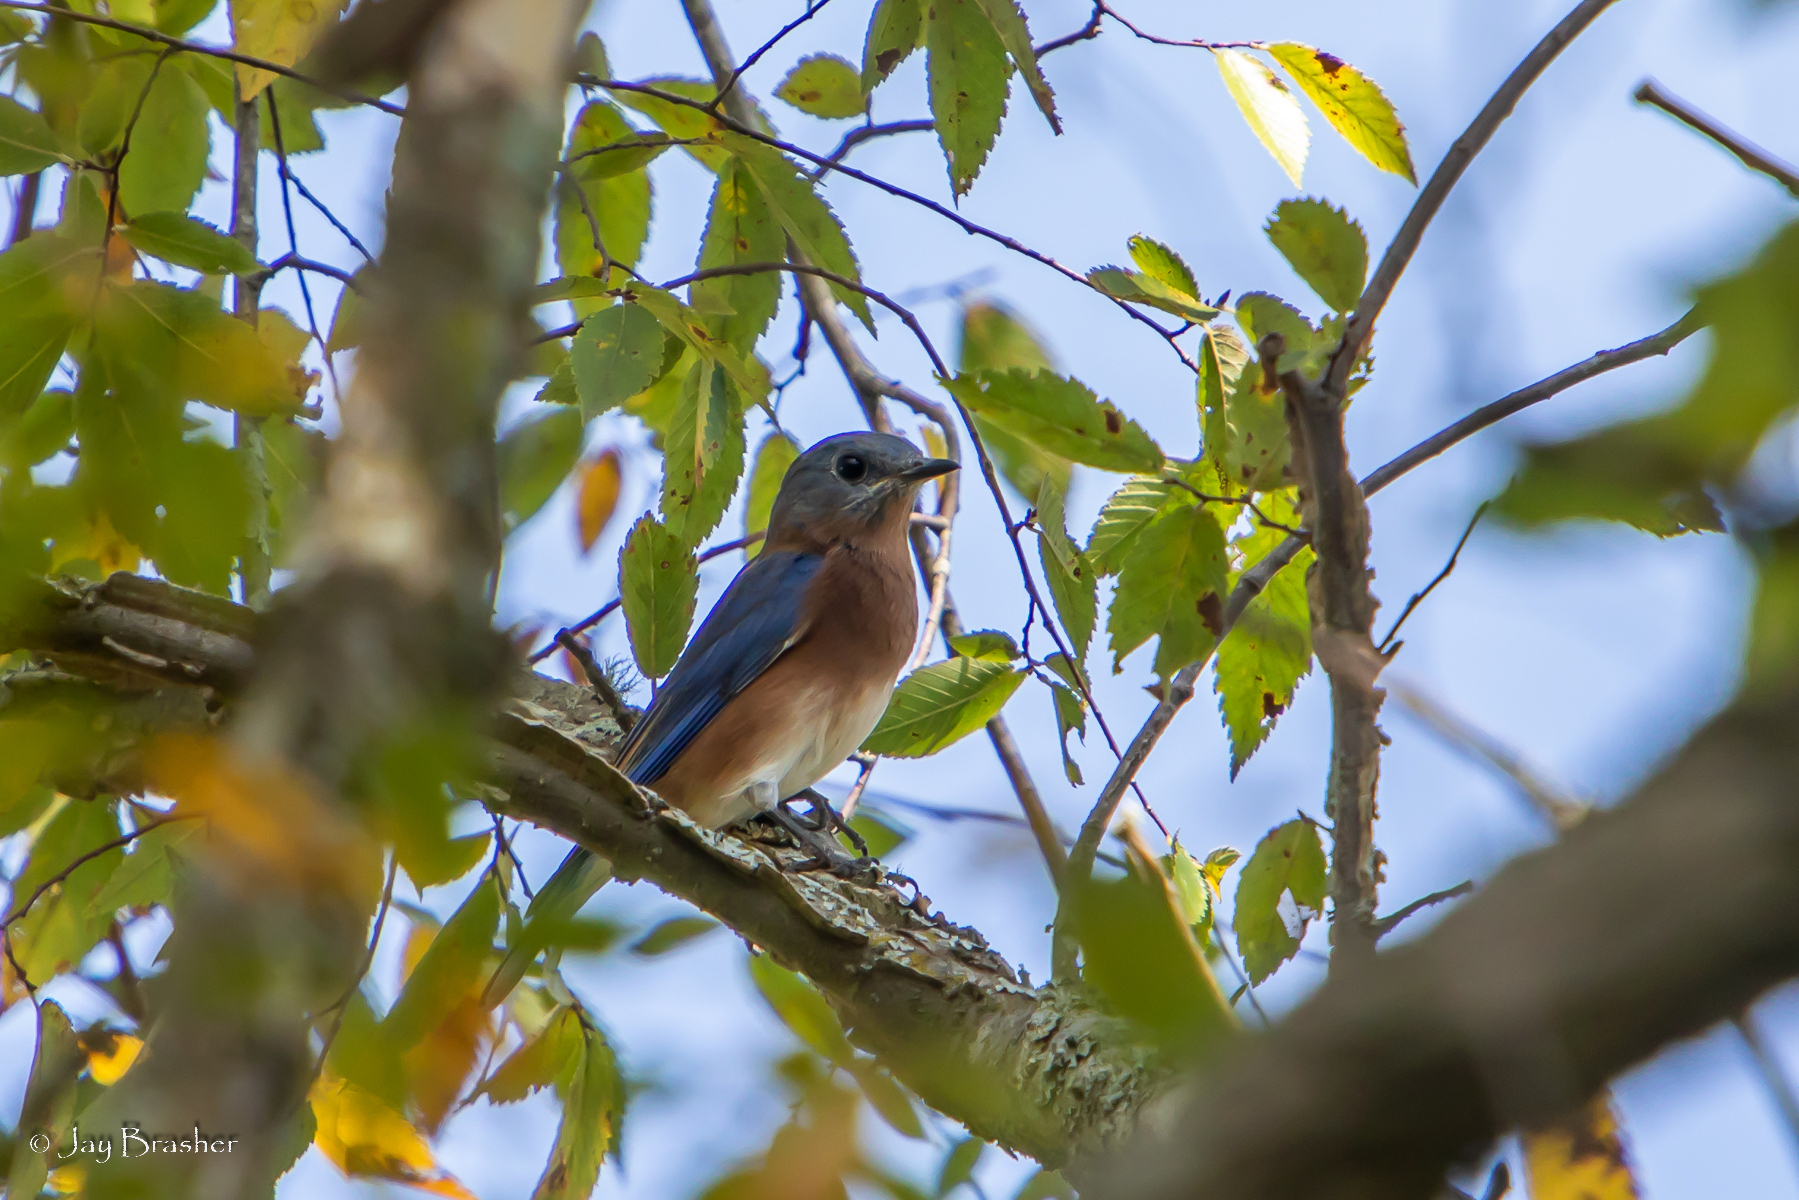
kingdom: Animalia
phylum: Chordata
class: Aves
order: Passeriformes
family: Turdidae
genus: Sialia
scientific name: Sialia sialis
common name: Eastern bluebird
